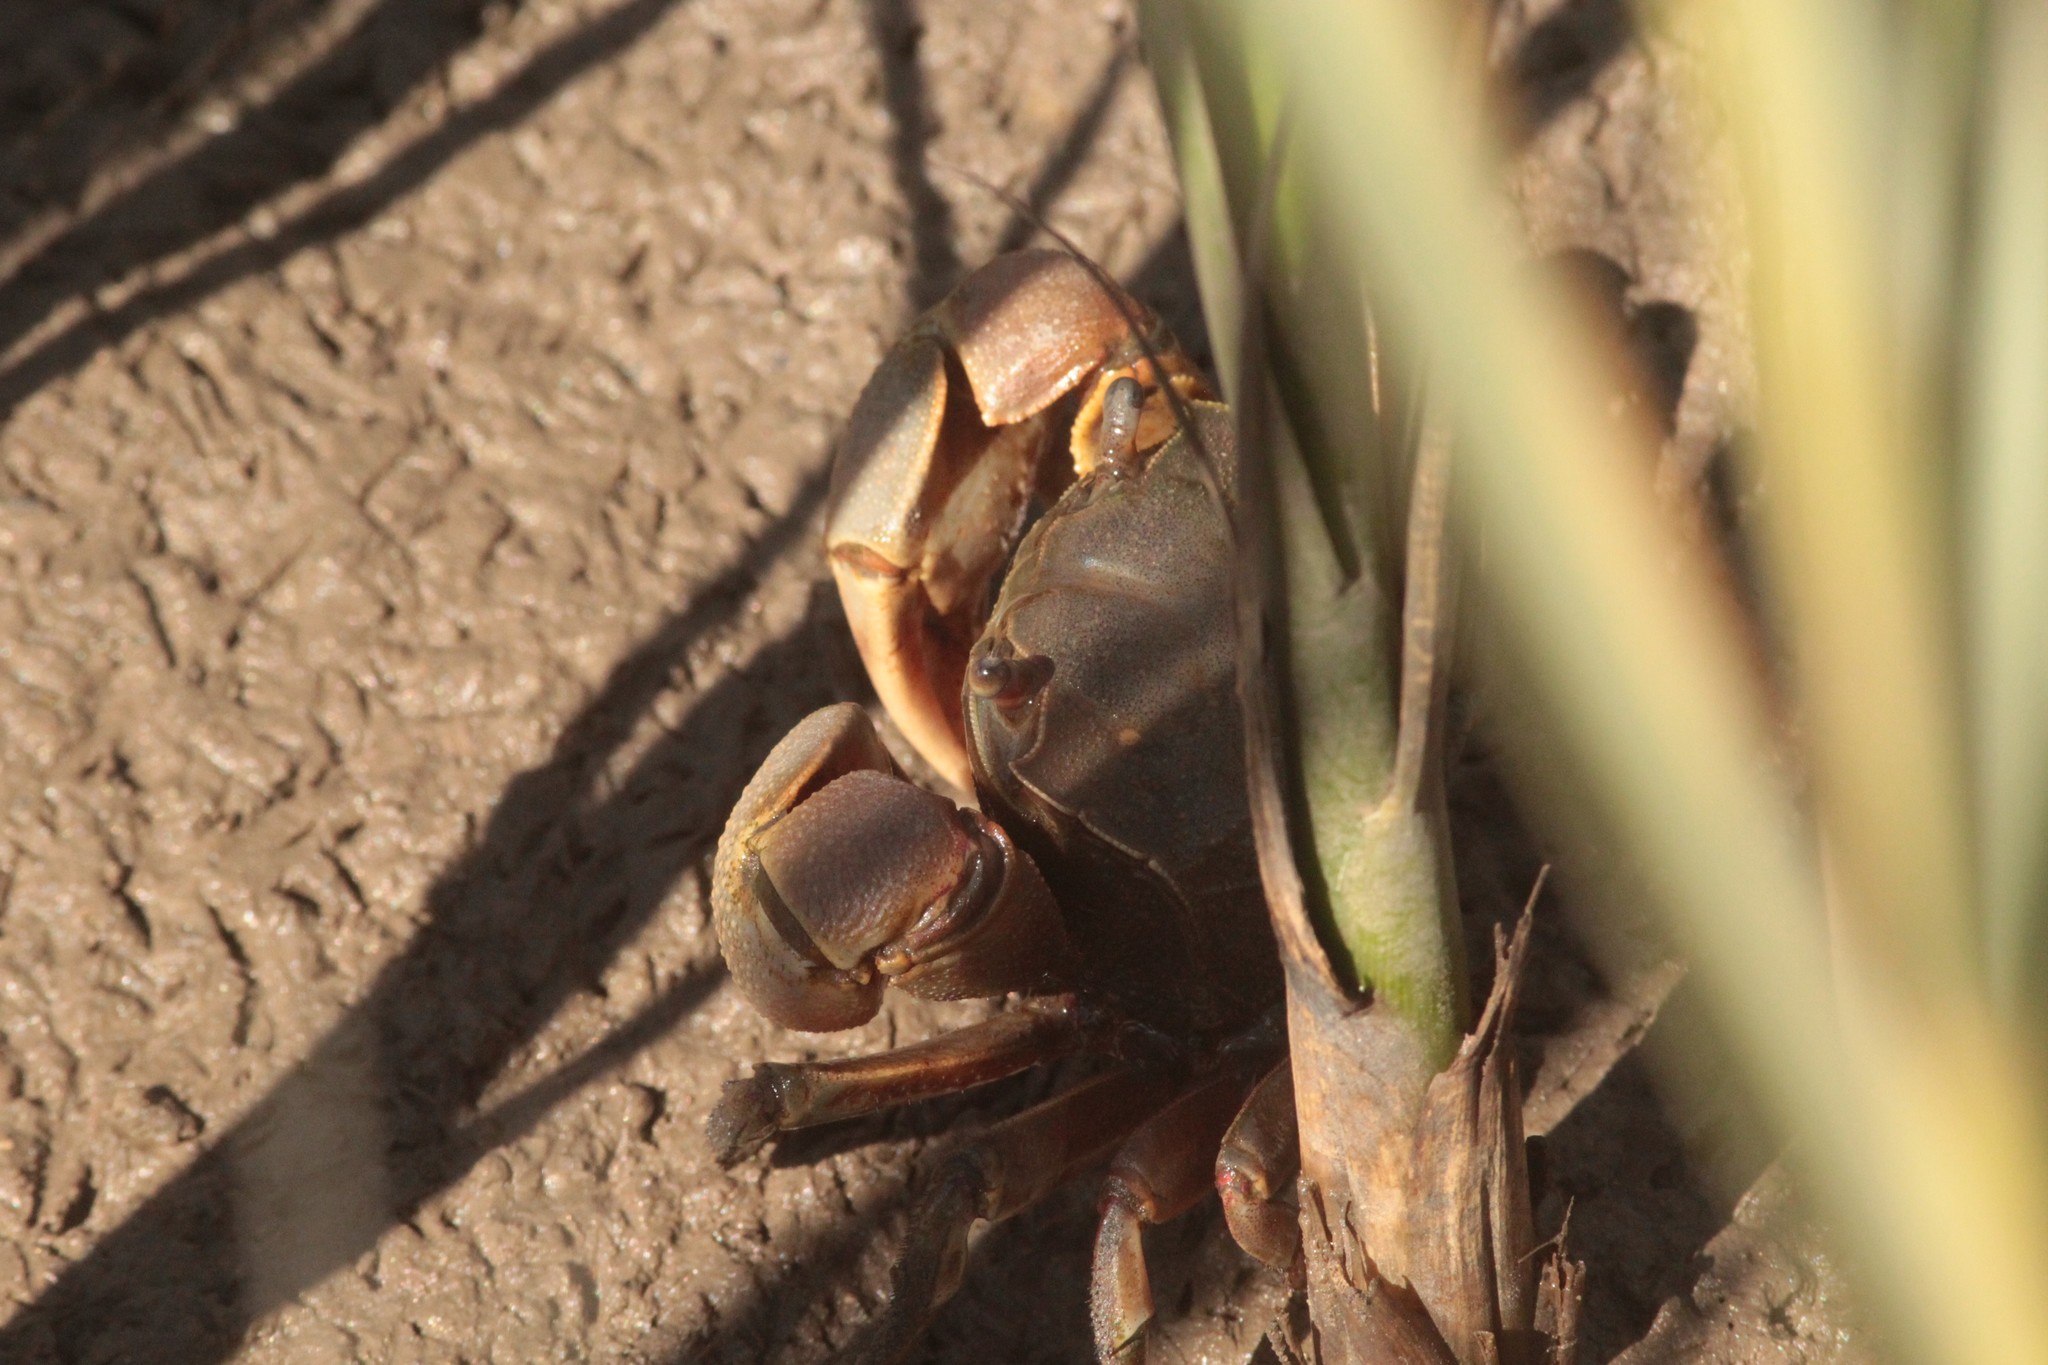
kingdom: Animalia
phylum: Arthropoda
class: Malacostraca
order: Decapoda
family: Varunidae
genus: Neohelice
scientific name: Neohelice granulata
